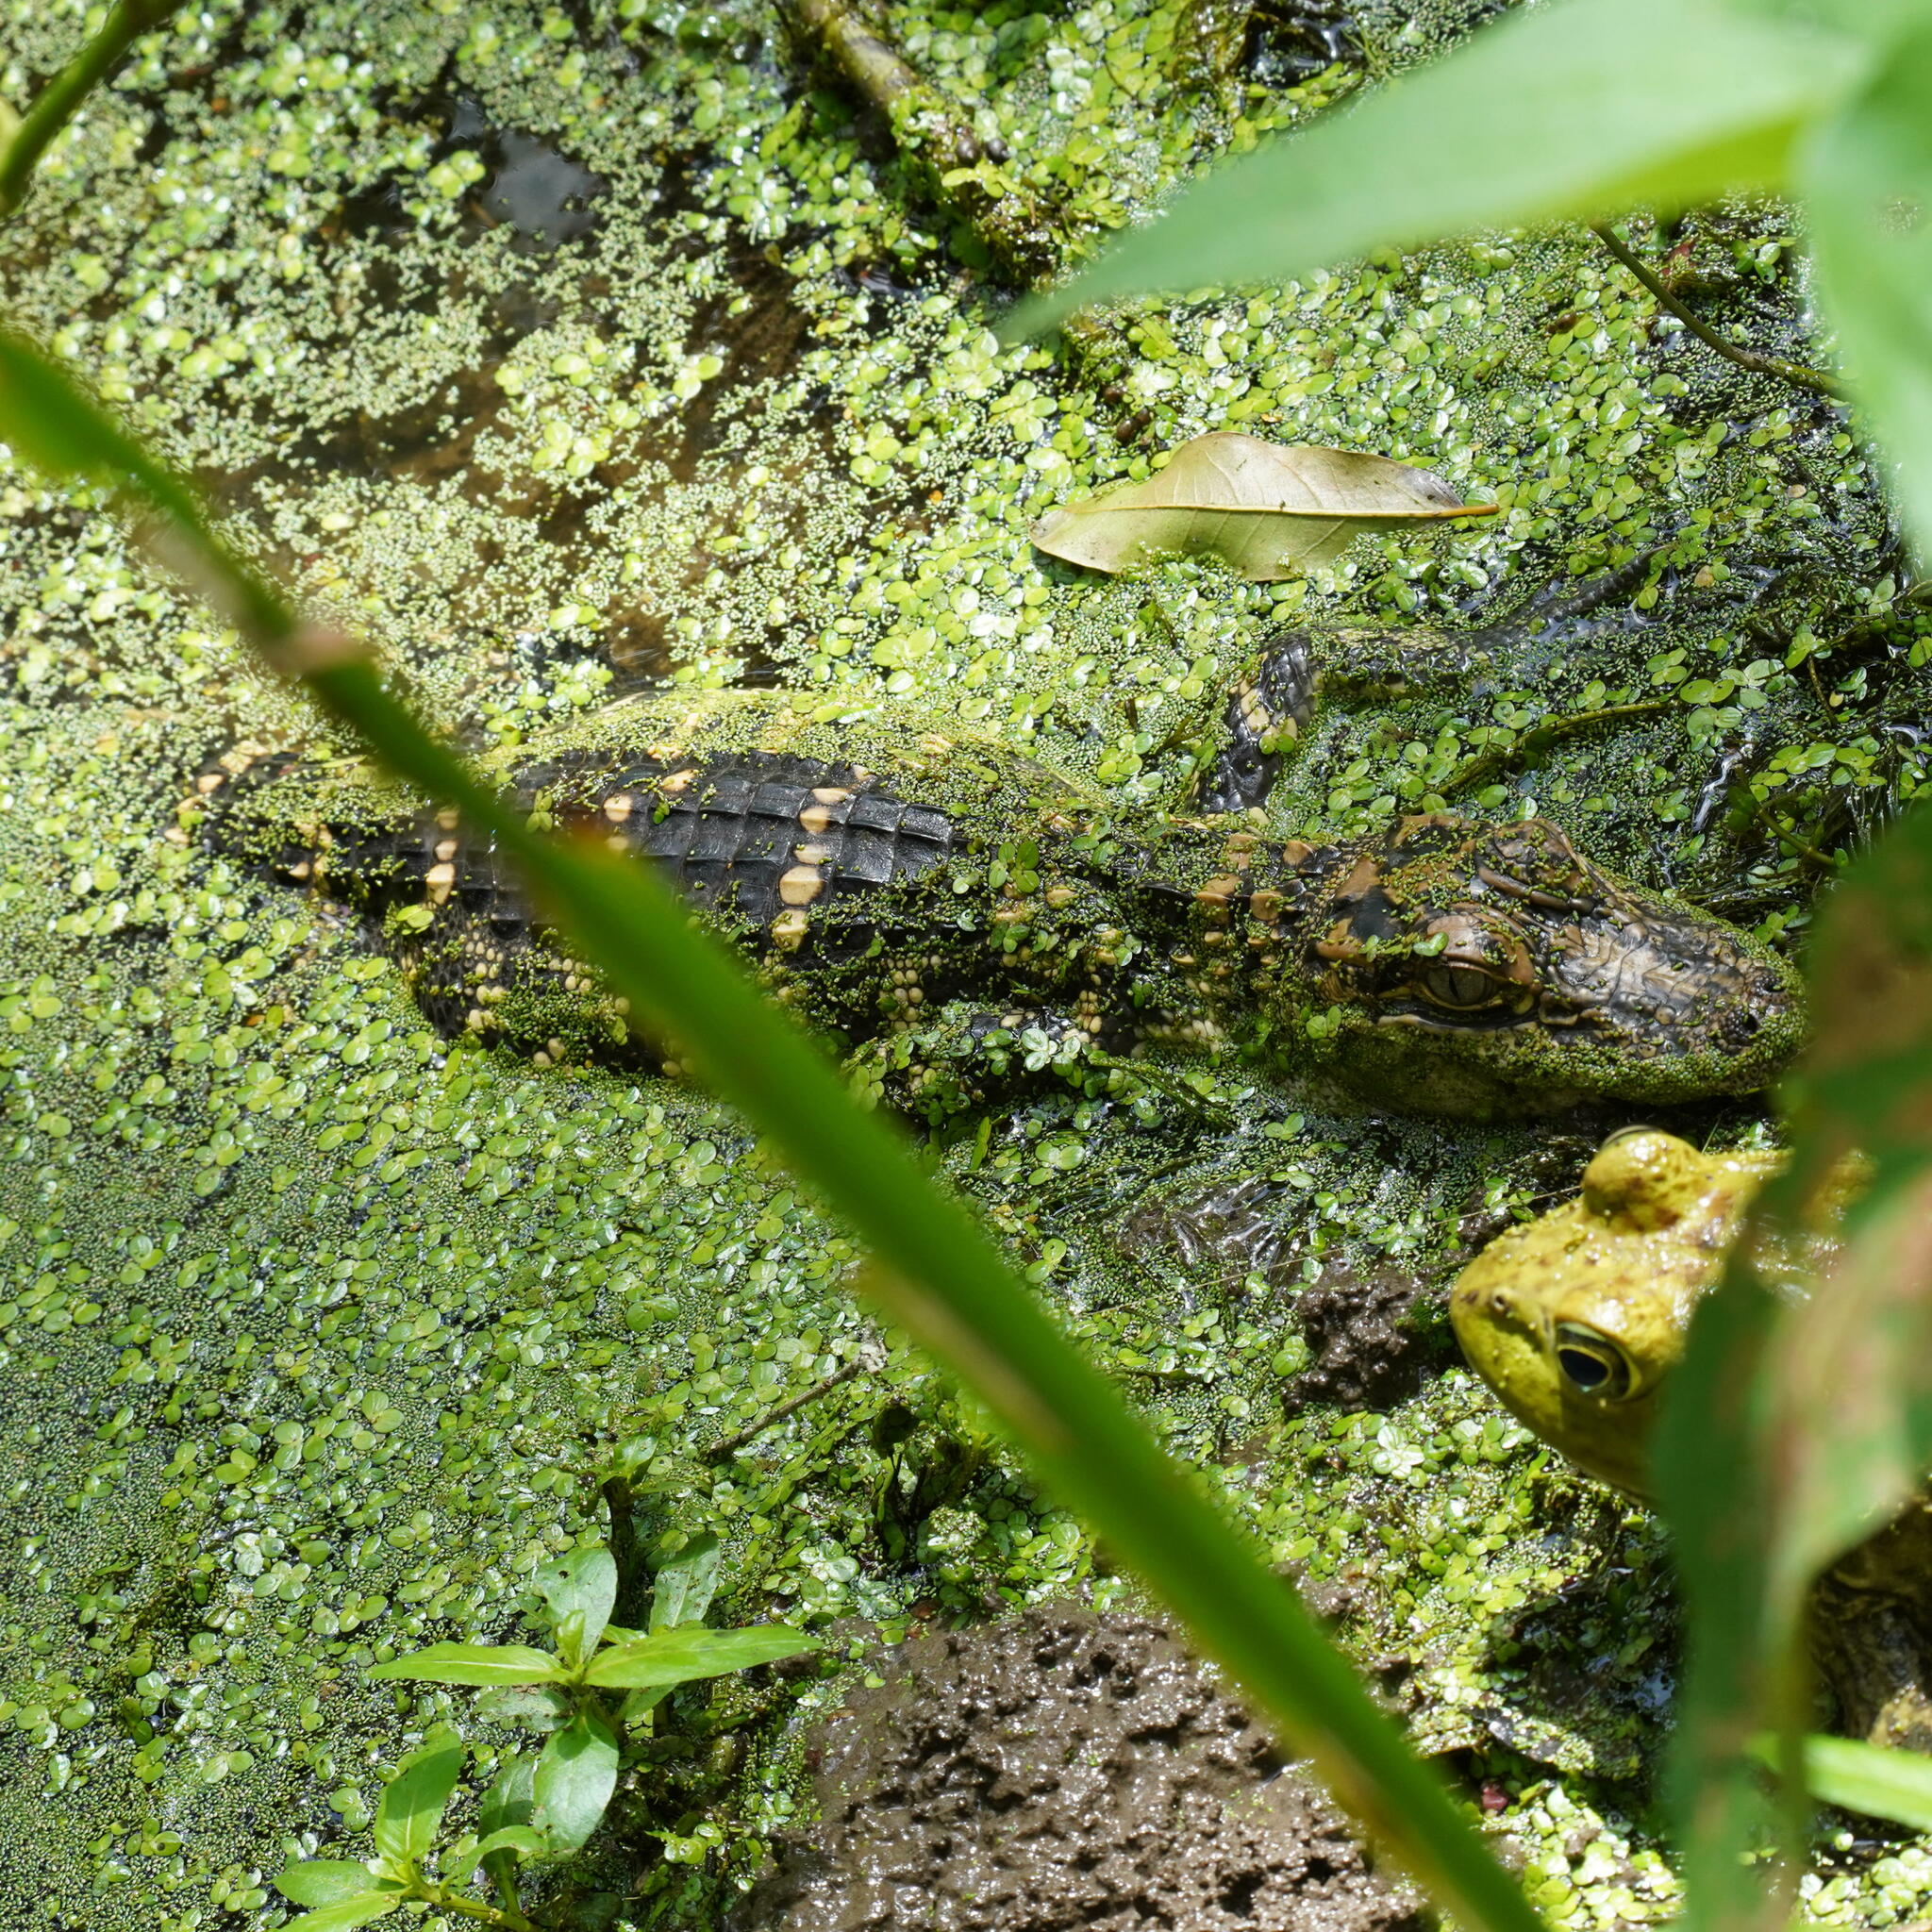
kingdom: Animalia
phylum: Chordata
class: Crocodylia
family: Alligatoridae
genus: Alligator
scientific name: Alligator mississippiensis
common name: American alligator
